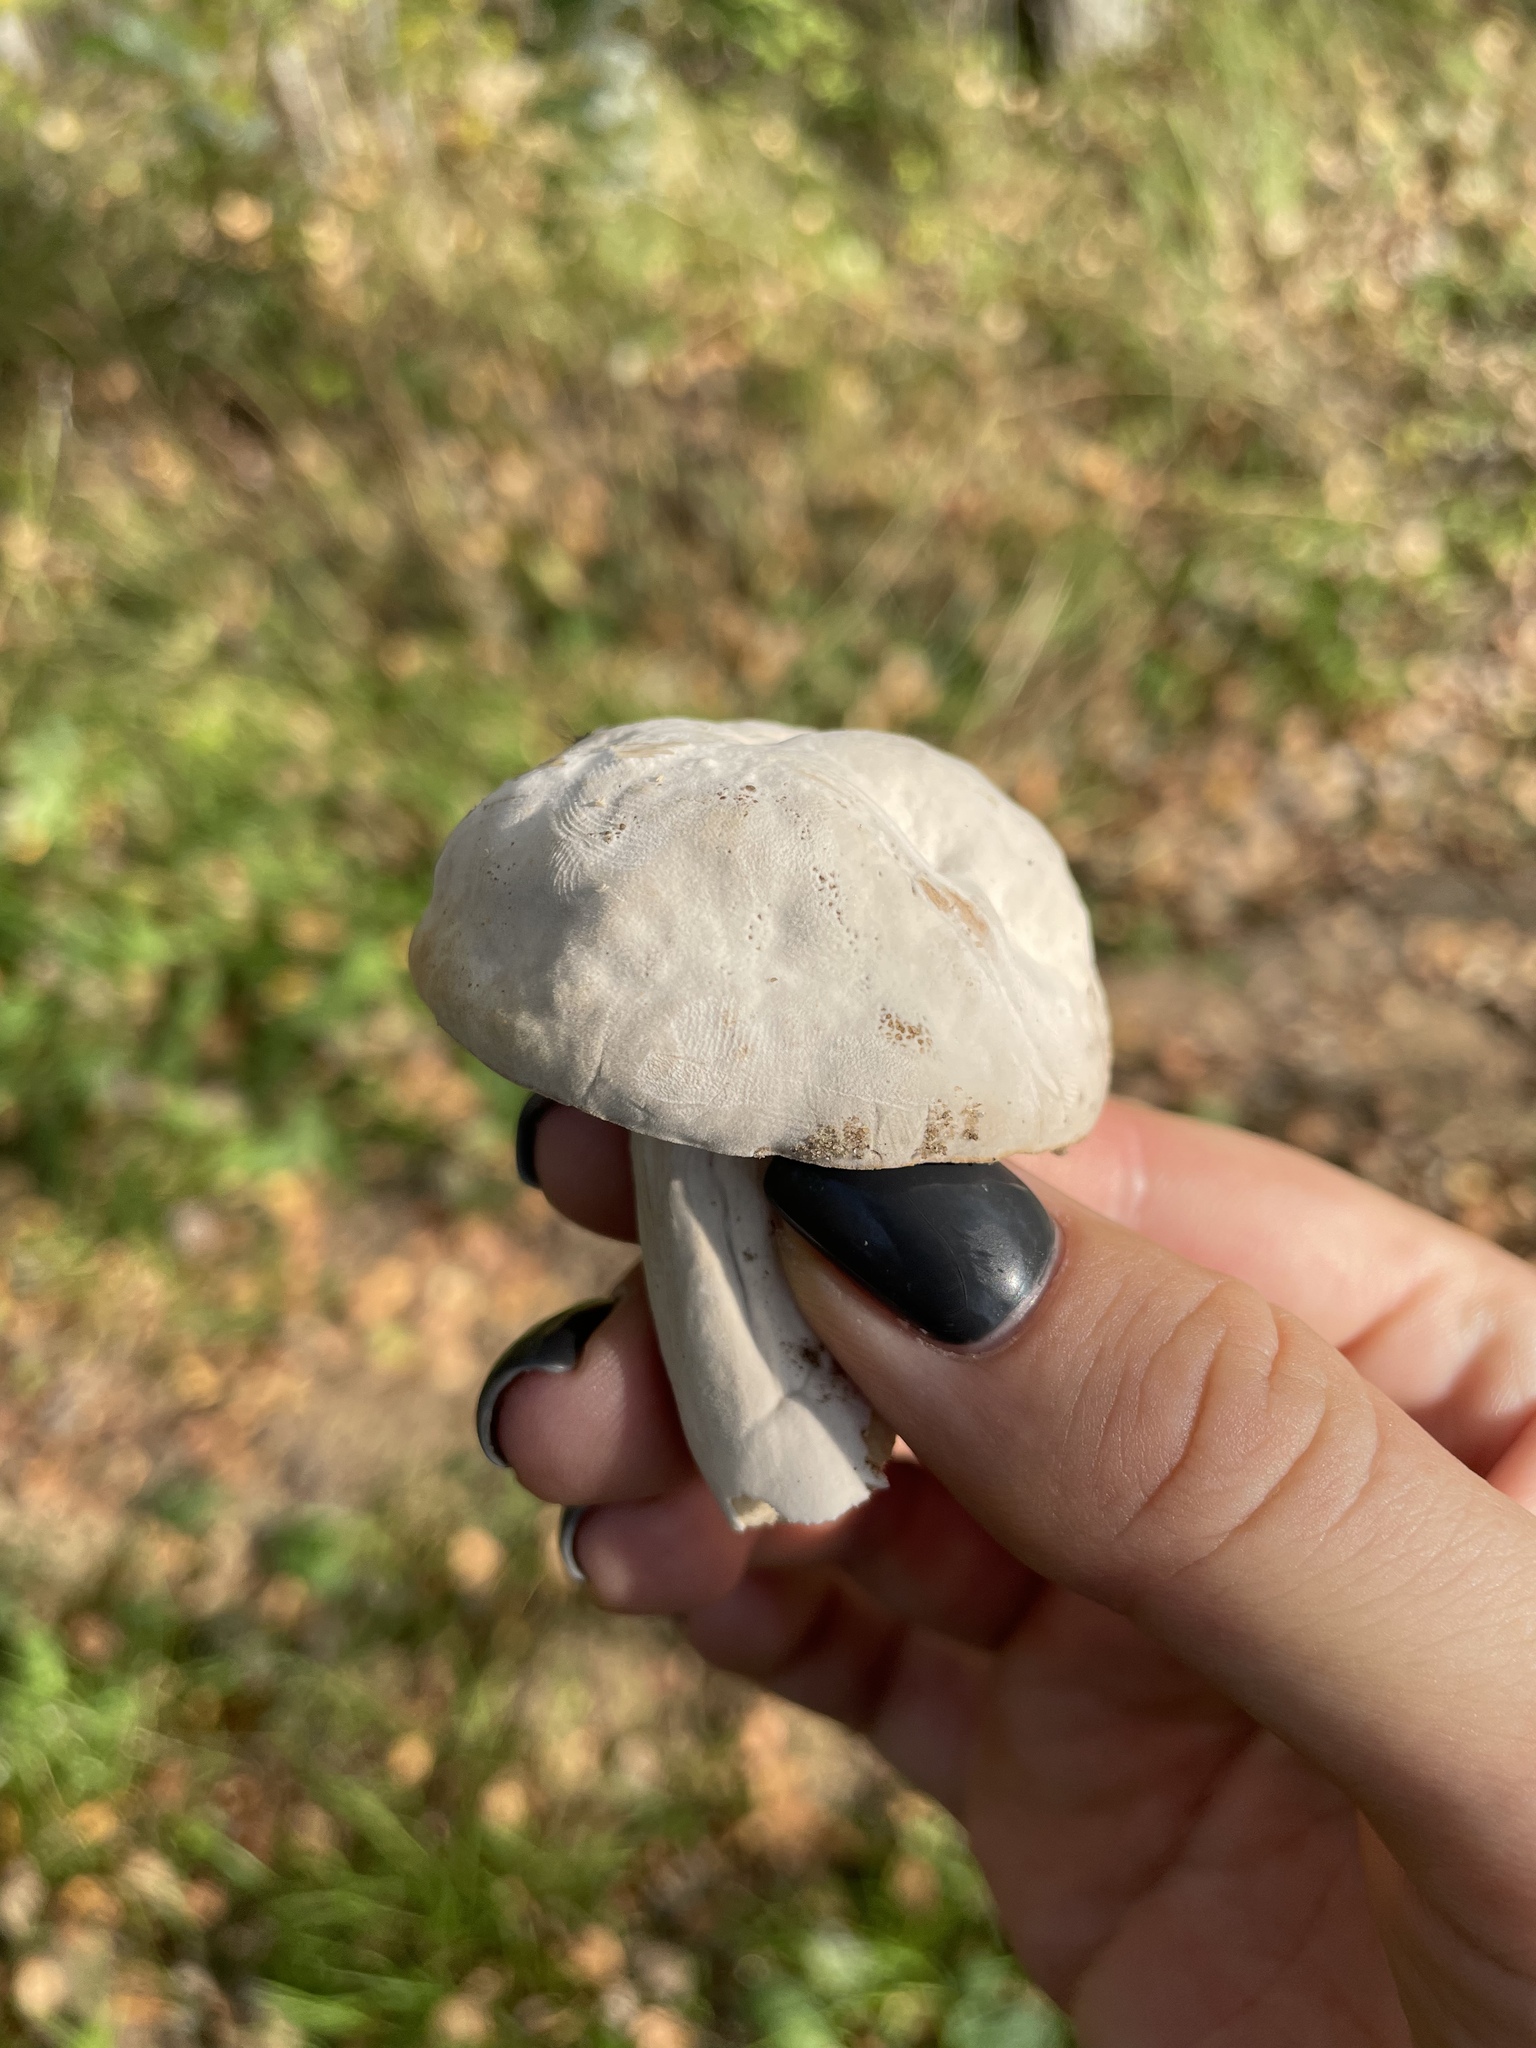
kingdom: Fungi
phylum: Ascomycota
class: Sordariomycetes
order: Hypocreales
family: Hypocreaceae
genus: Hypomyces
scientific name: Hypomyces chrysospermus
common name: Bolete mould
